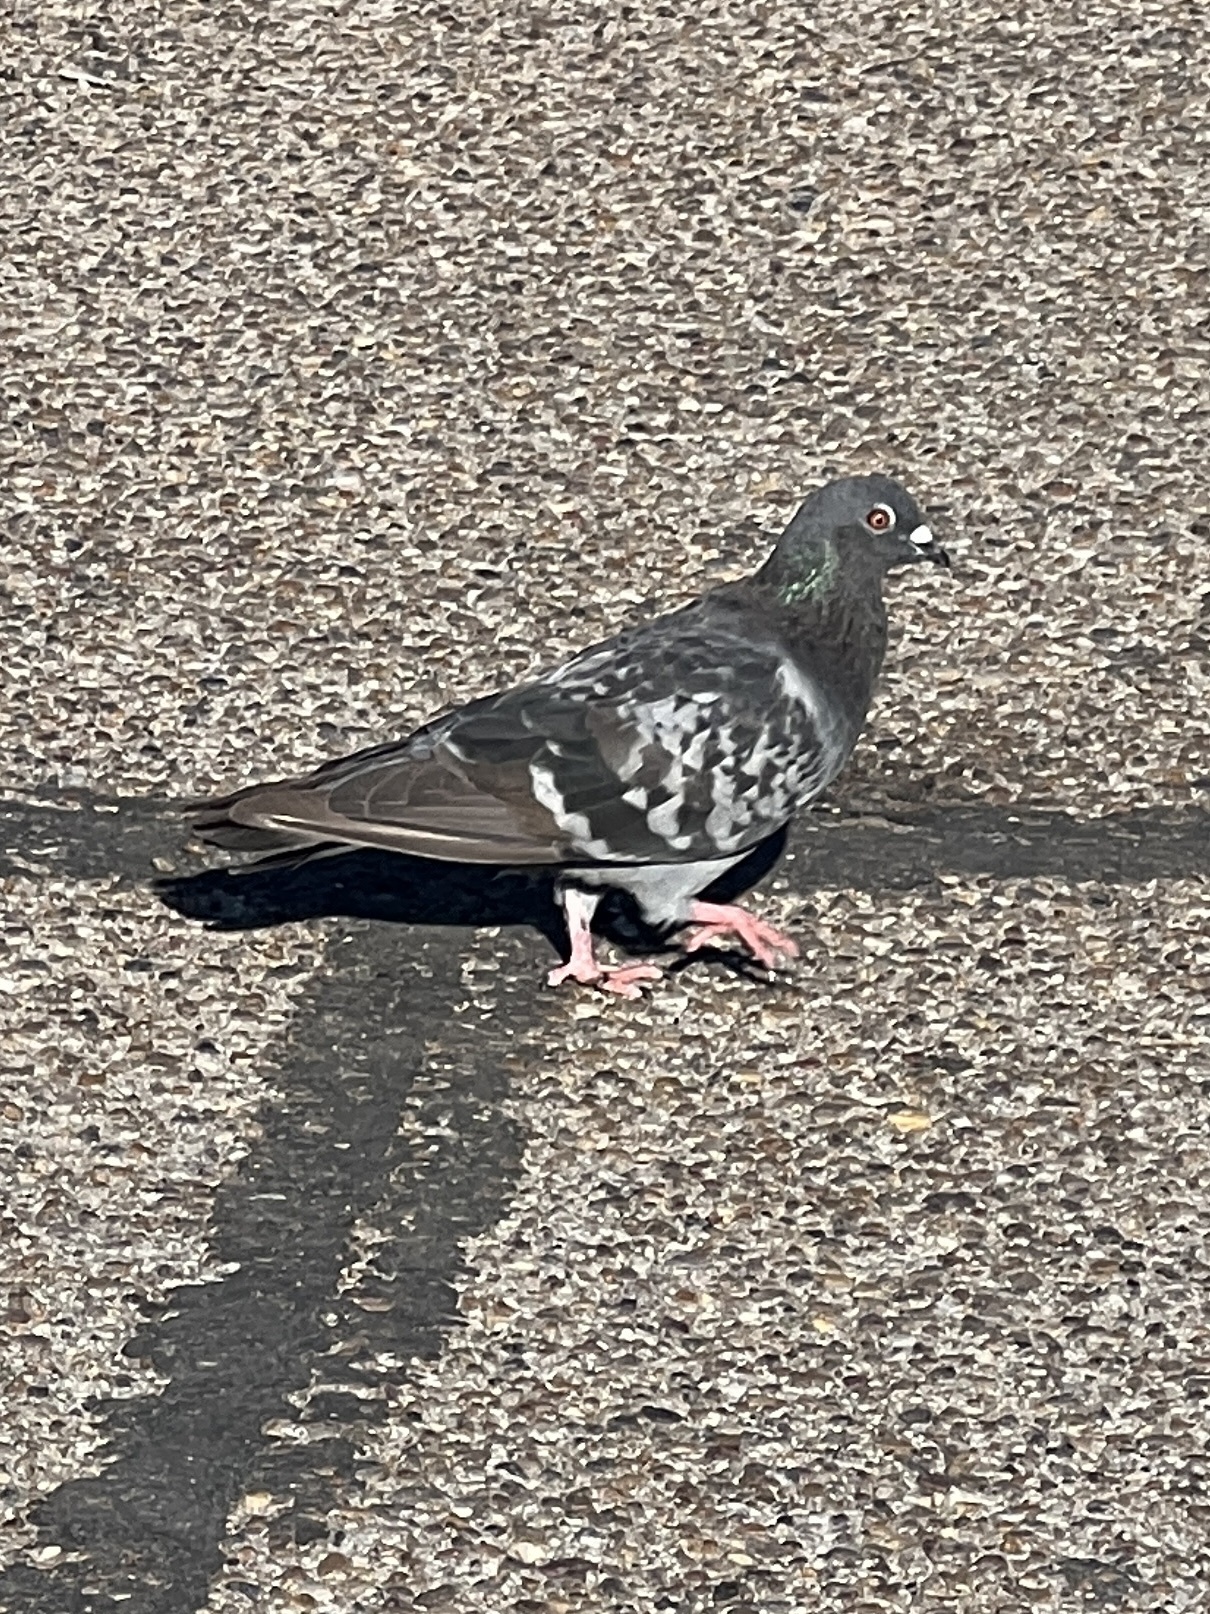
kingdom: Animalia
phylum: Chordata
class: Aves
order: Columbiformes
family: Columbidae
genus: Columba
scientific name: Columba livia
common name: Rock pigeon
